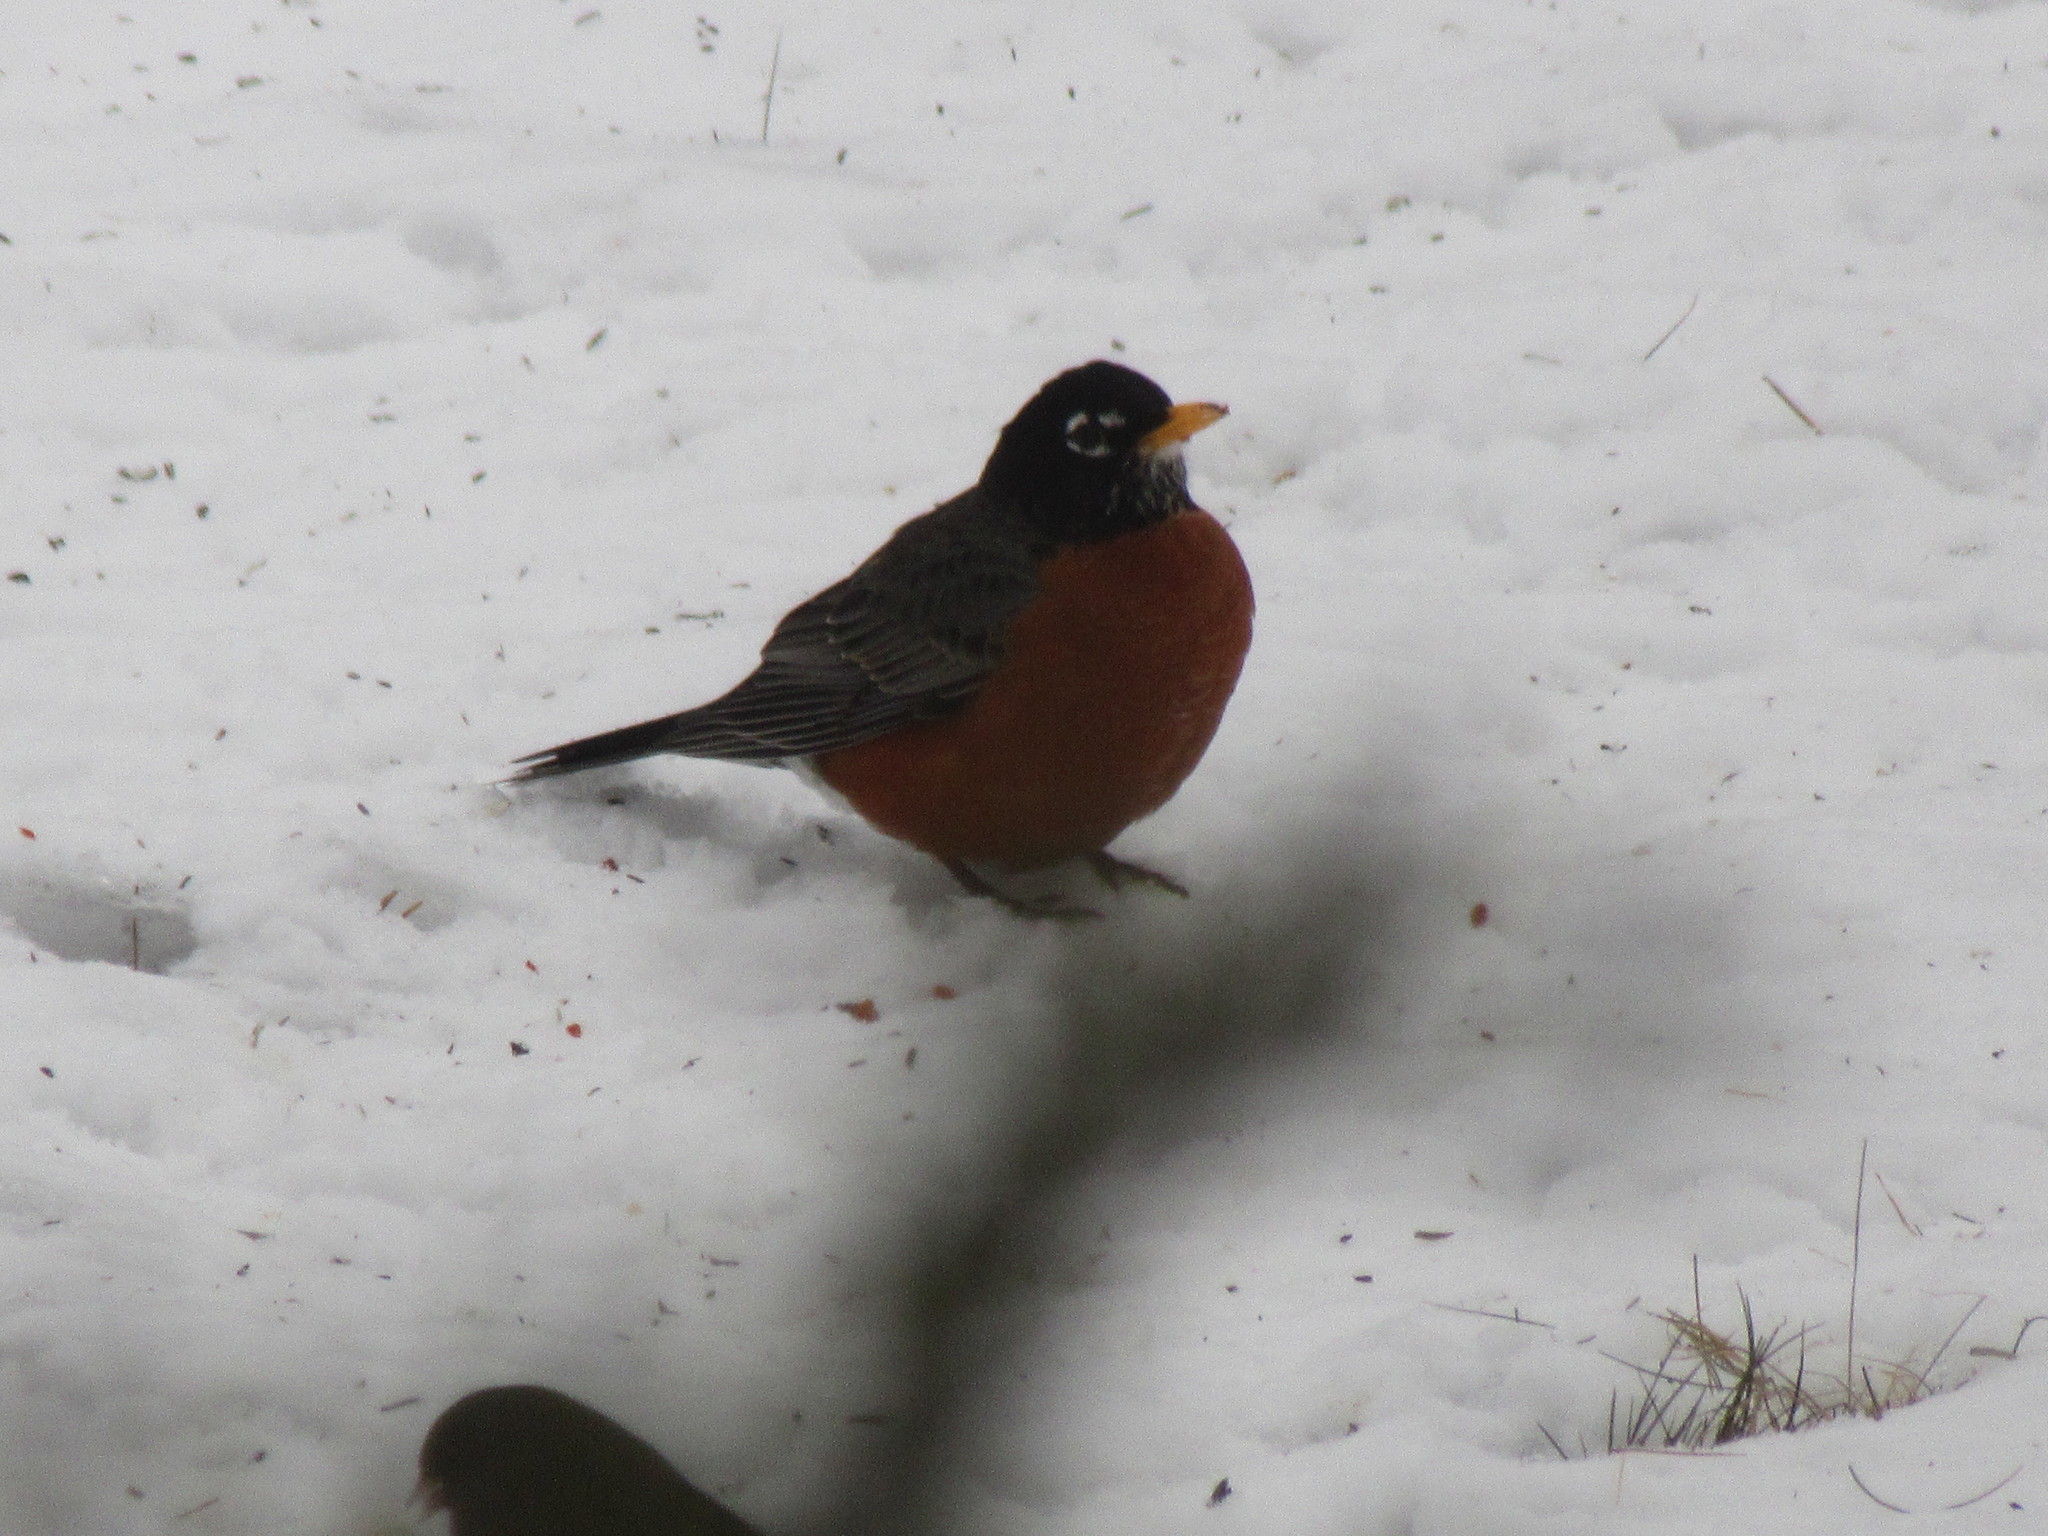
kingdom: Animalia
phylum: Chordata
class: Aves
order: Passeriformes
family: Turdidae
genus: Turdus
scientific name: Turdus migratorius
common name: American robin
